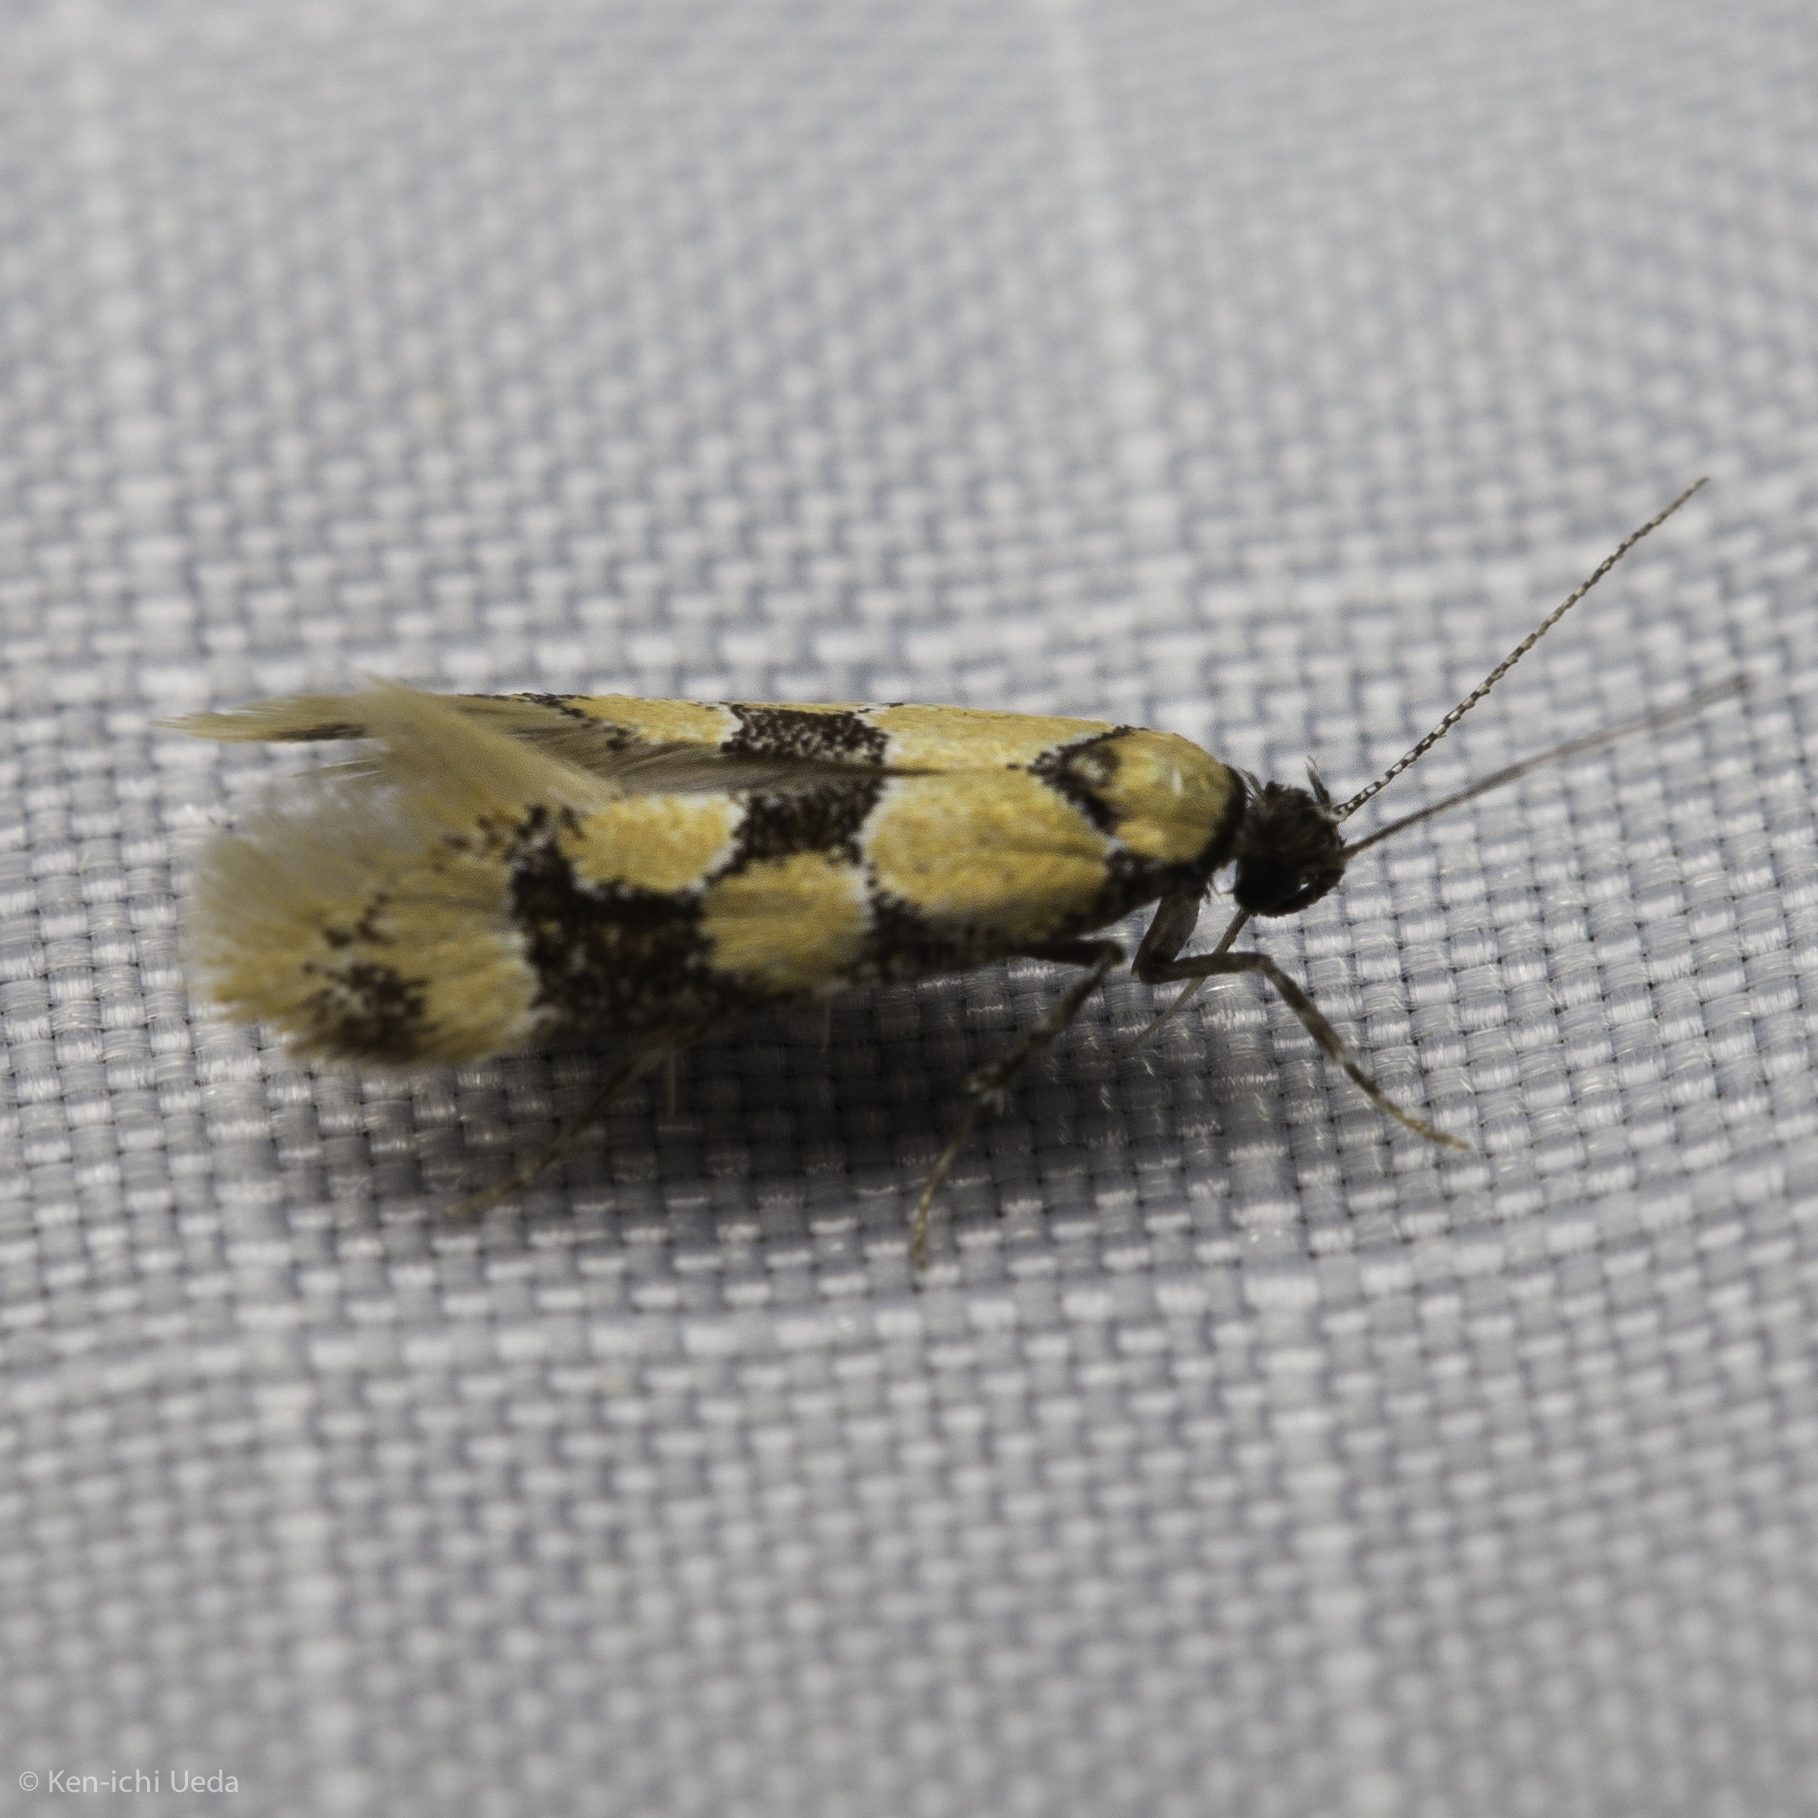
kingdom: Animalia
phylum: Arthropoda
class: Insecta
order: Lepidoptera
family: Oecophoridae
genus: Decantha
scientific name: Decantha stonda
